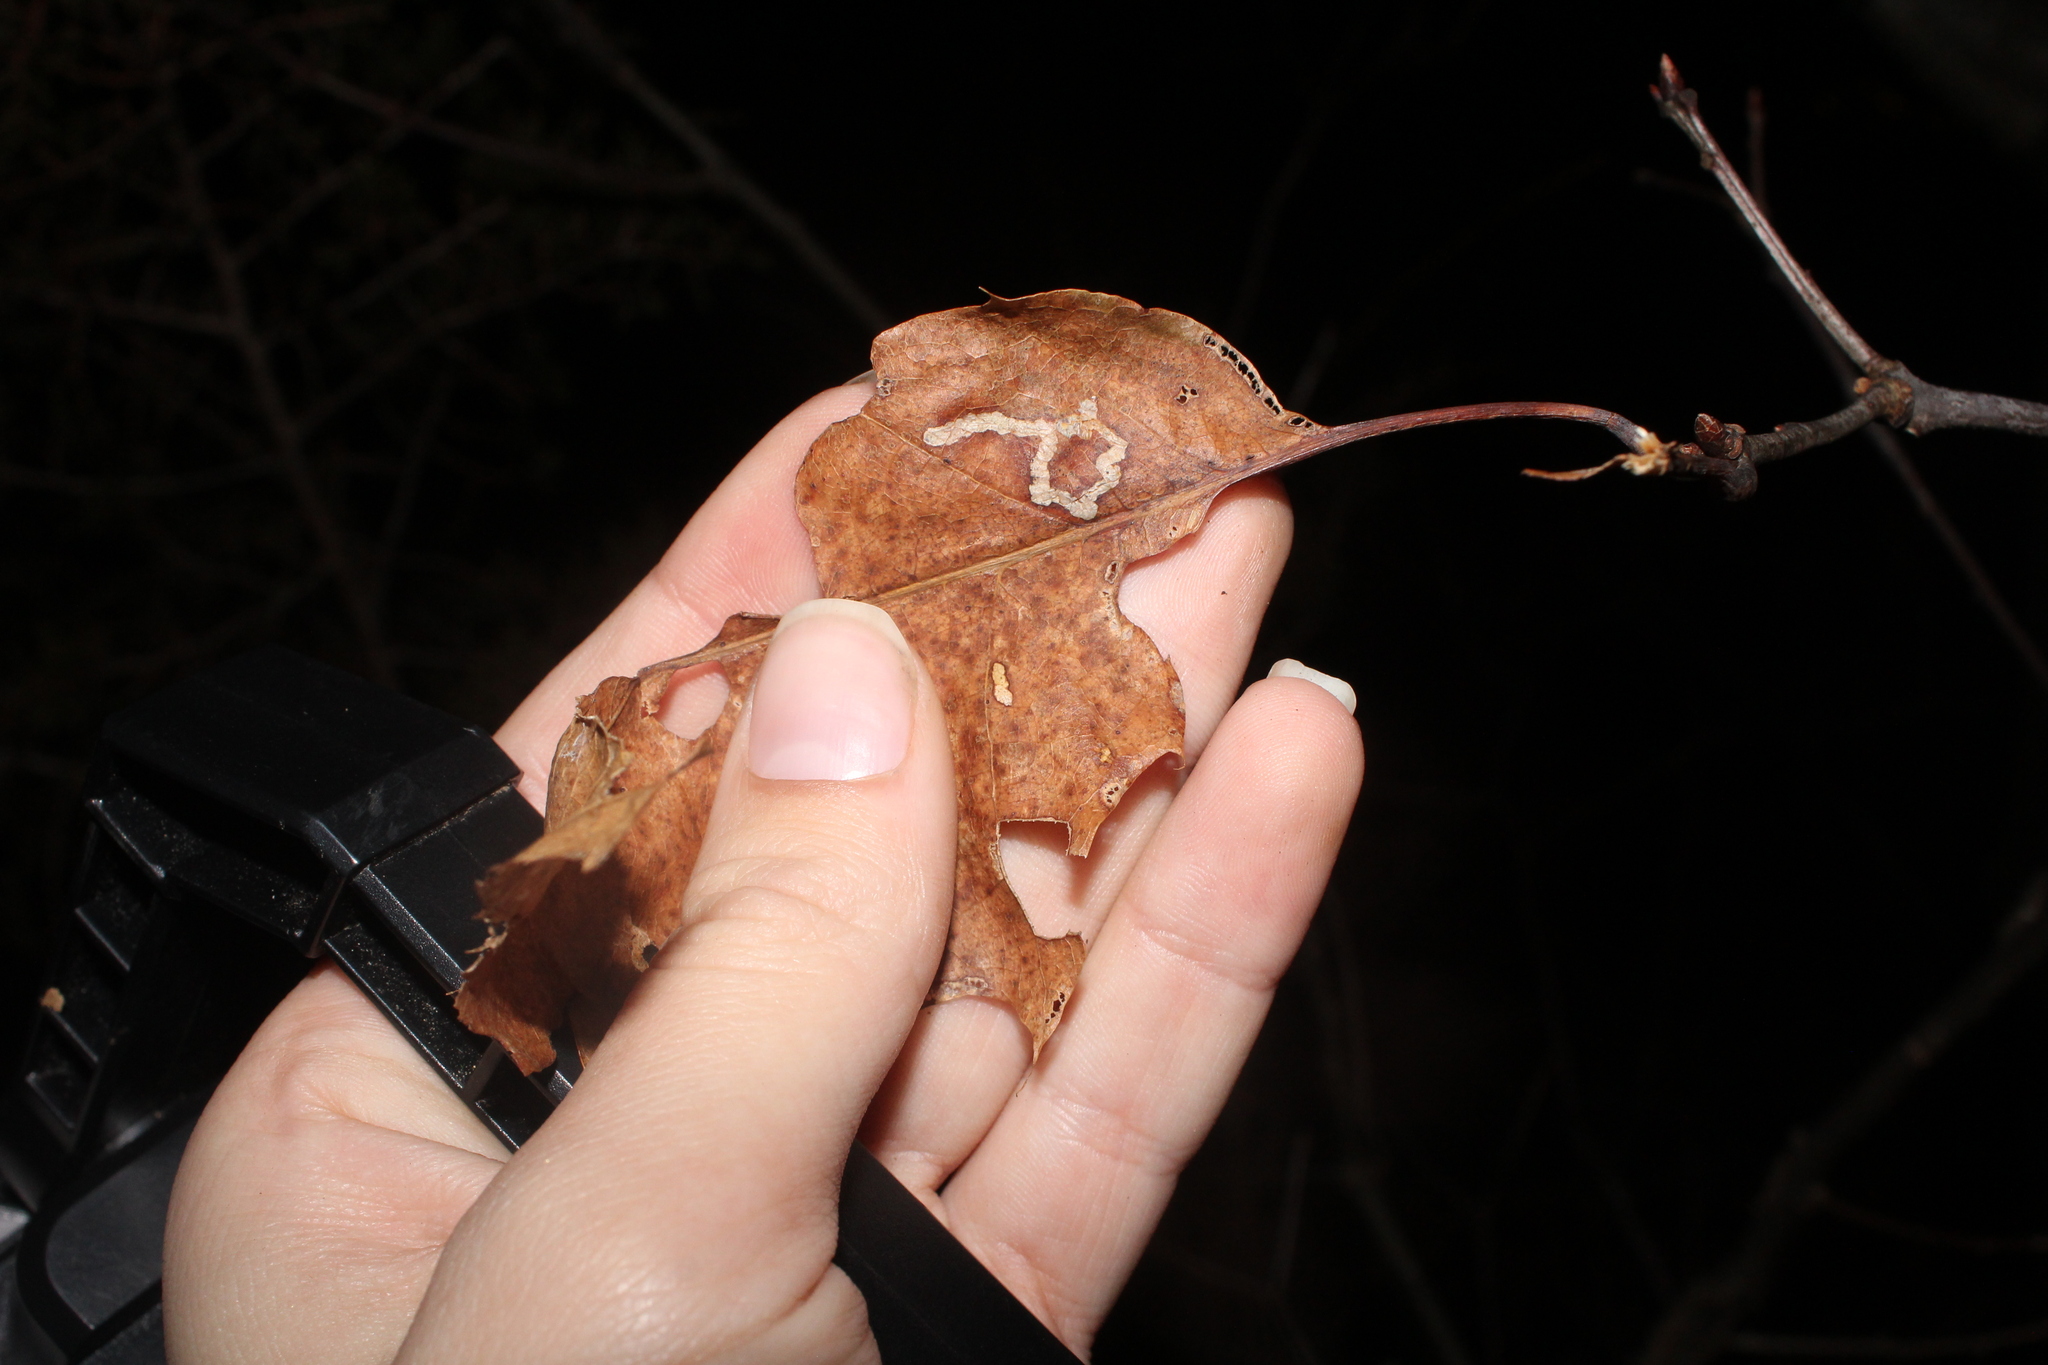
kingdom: Animalia
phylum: Arthropoda
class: Insecta
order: Lepidoptera
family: Nepticulidae
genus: Stigmella
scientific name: Stigmella
